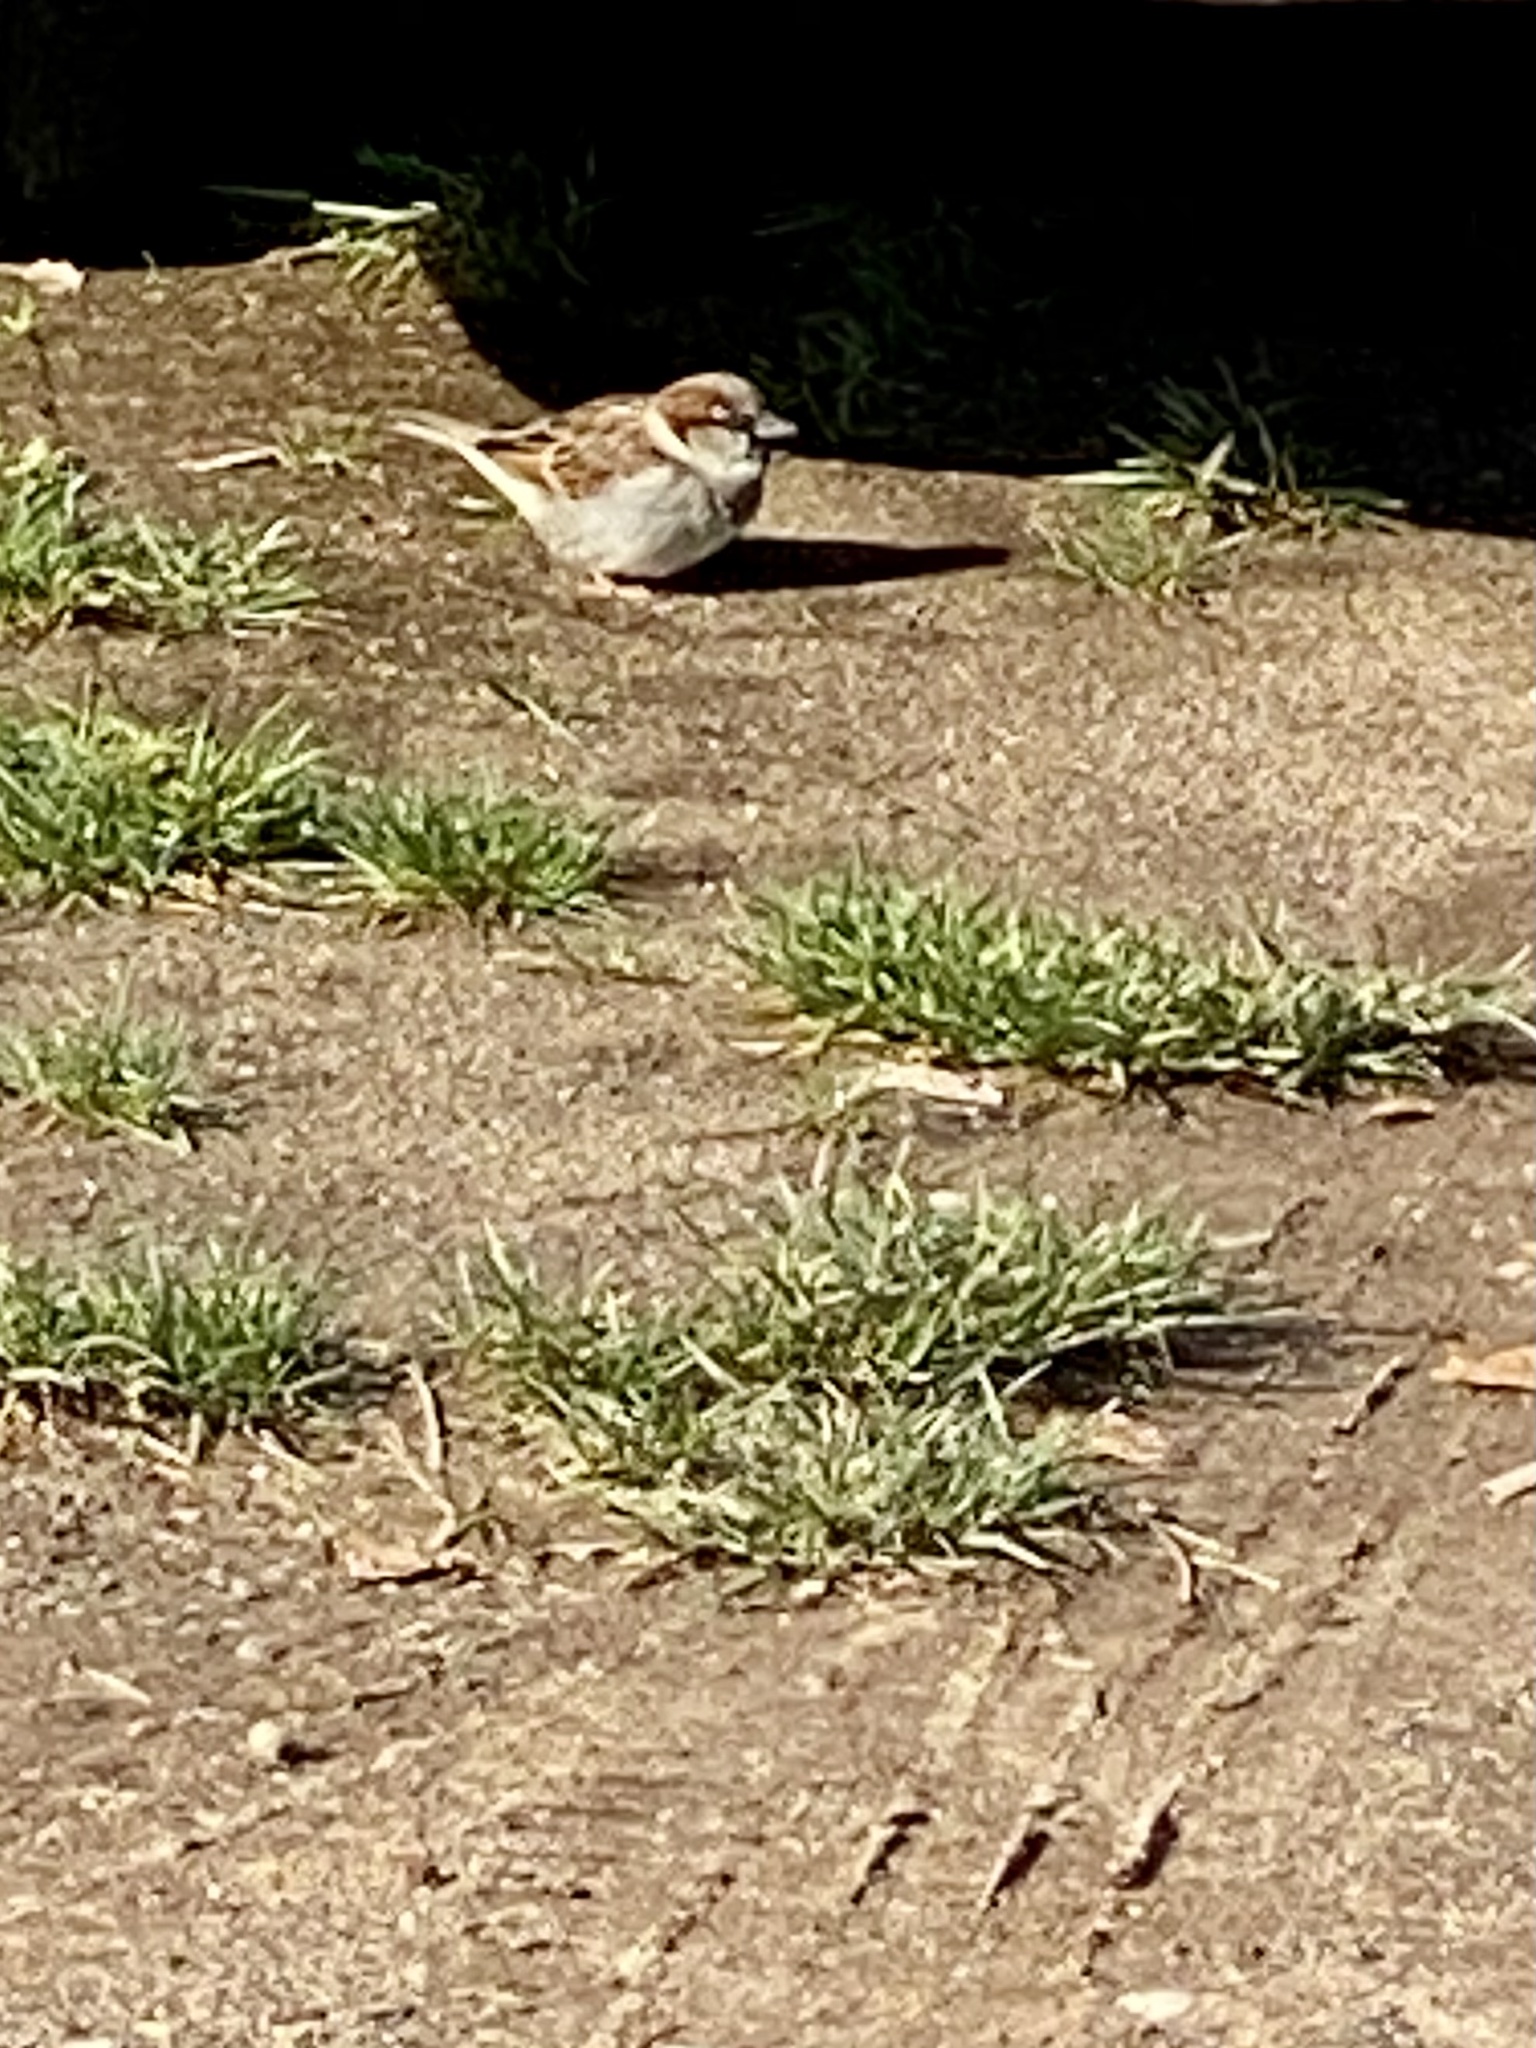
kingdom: Animalia
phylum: Chordata
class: Aves
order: Passeriformes
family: Passeridae
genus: Passer
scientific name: Passer domesticus
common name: House sparrow
